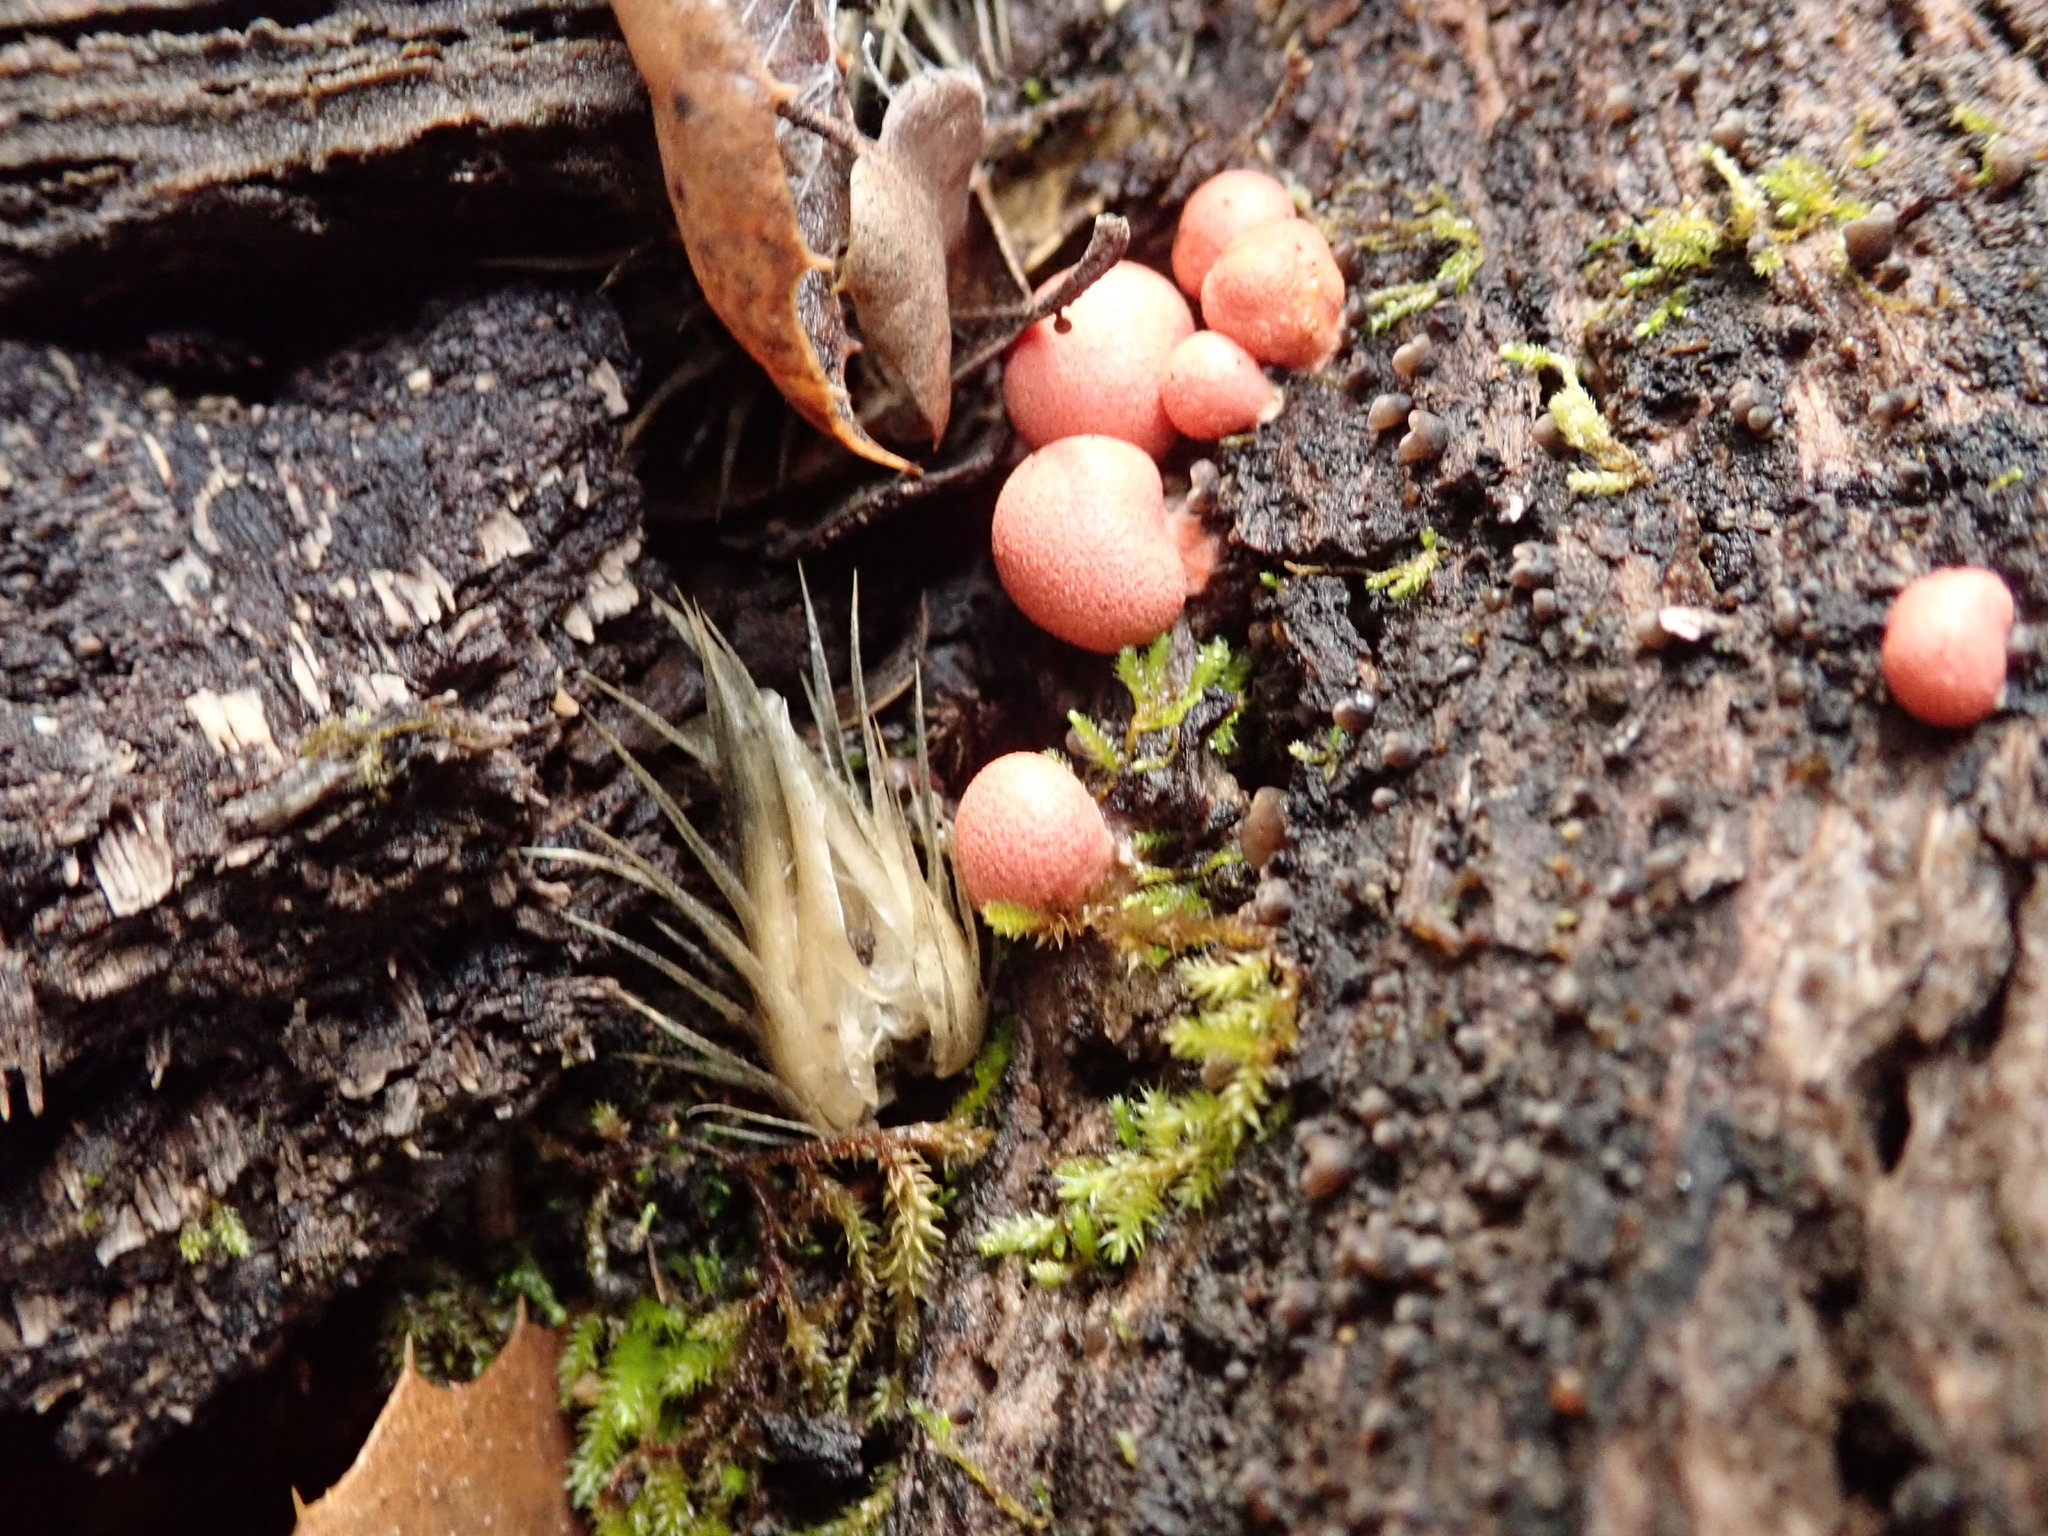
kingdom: Protozoa
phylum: Mycetozoa
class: Myxomycetes
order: Cribrariales
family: Tubiferaceae
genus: Lycogala
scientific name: Lycogala epidendrum
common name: Wolf's milk
